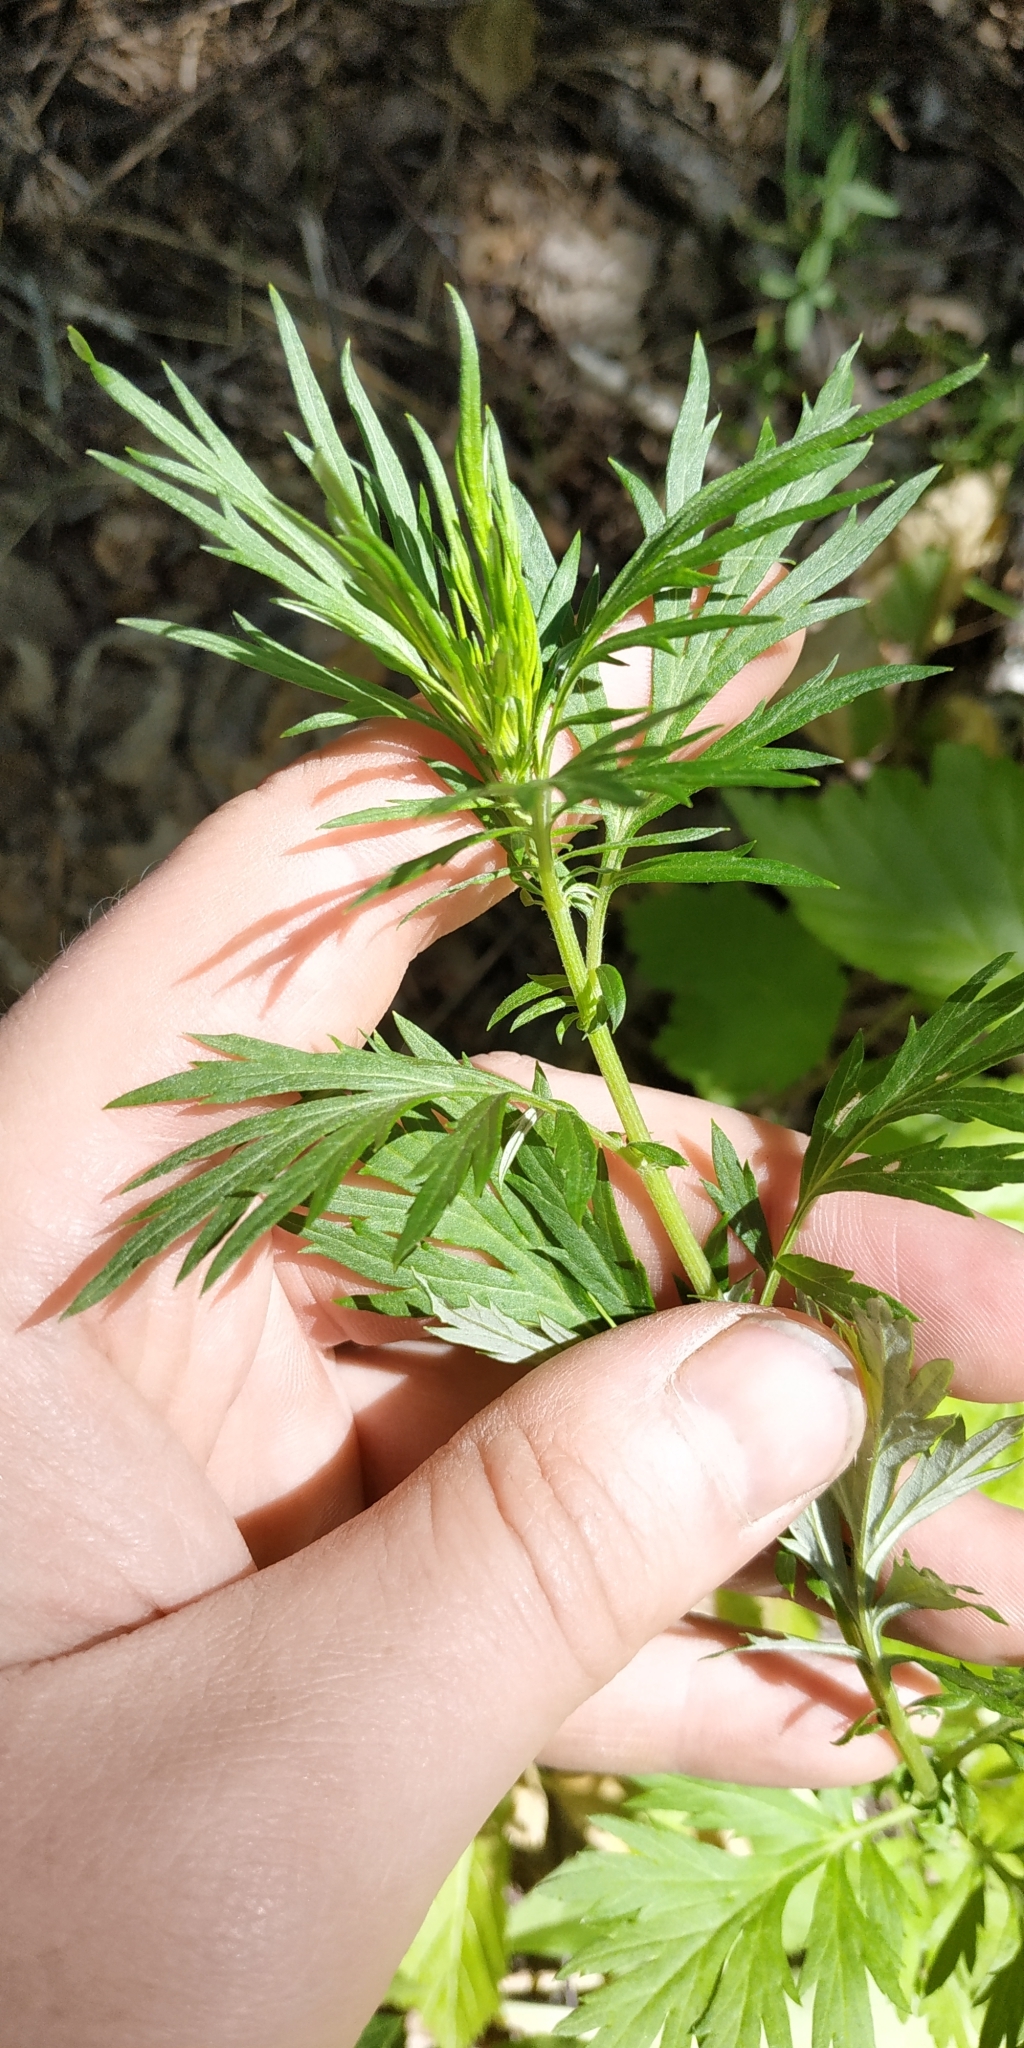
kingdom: Plantae
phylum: Tracheophyta
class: Magnoliopsida
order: Asterales
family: Asteraceae
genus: Artemisia
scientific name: Artemisia vulgaris
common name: Mugwort
